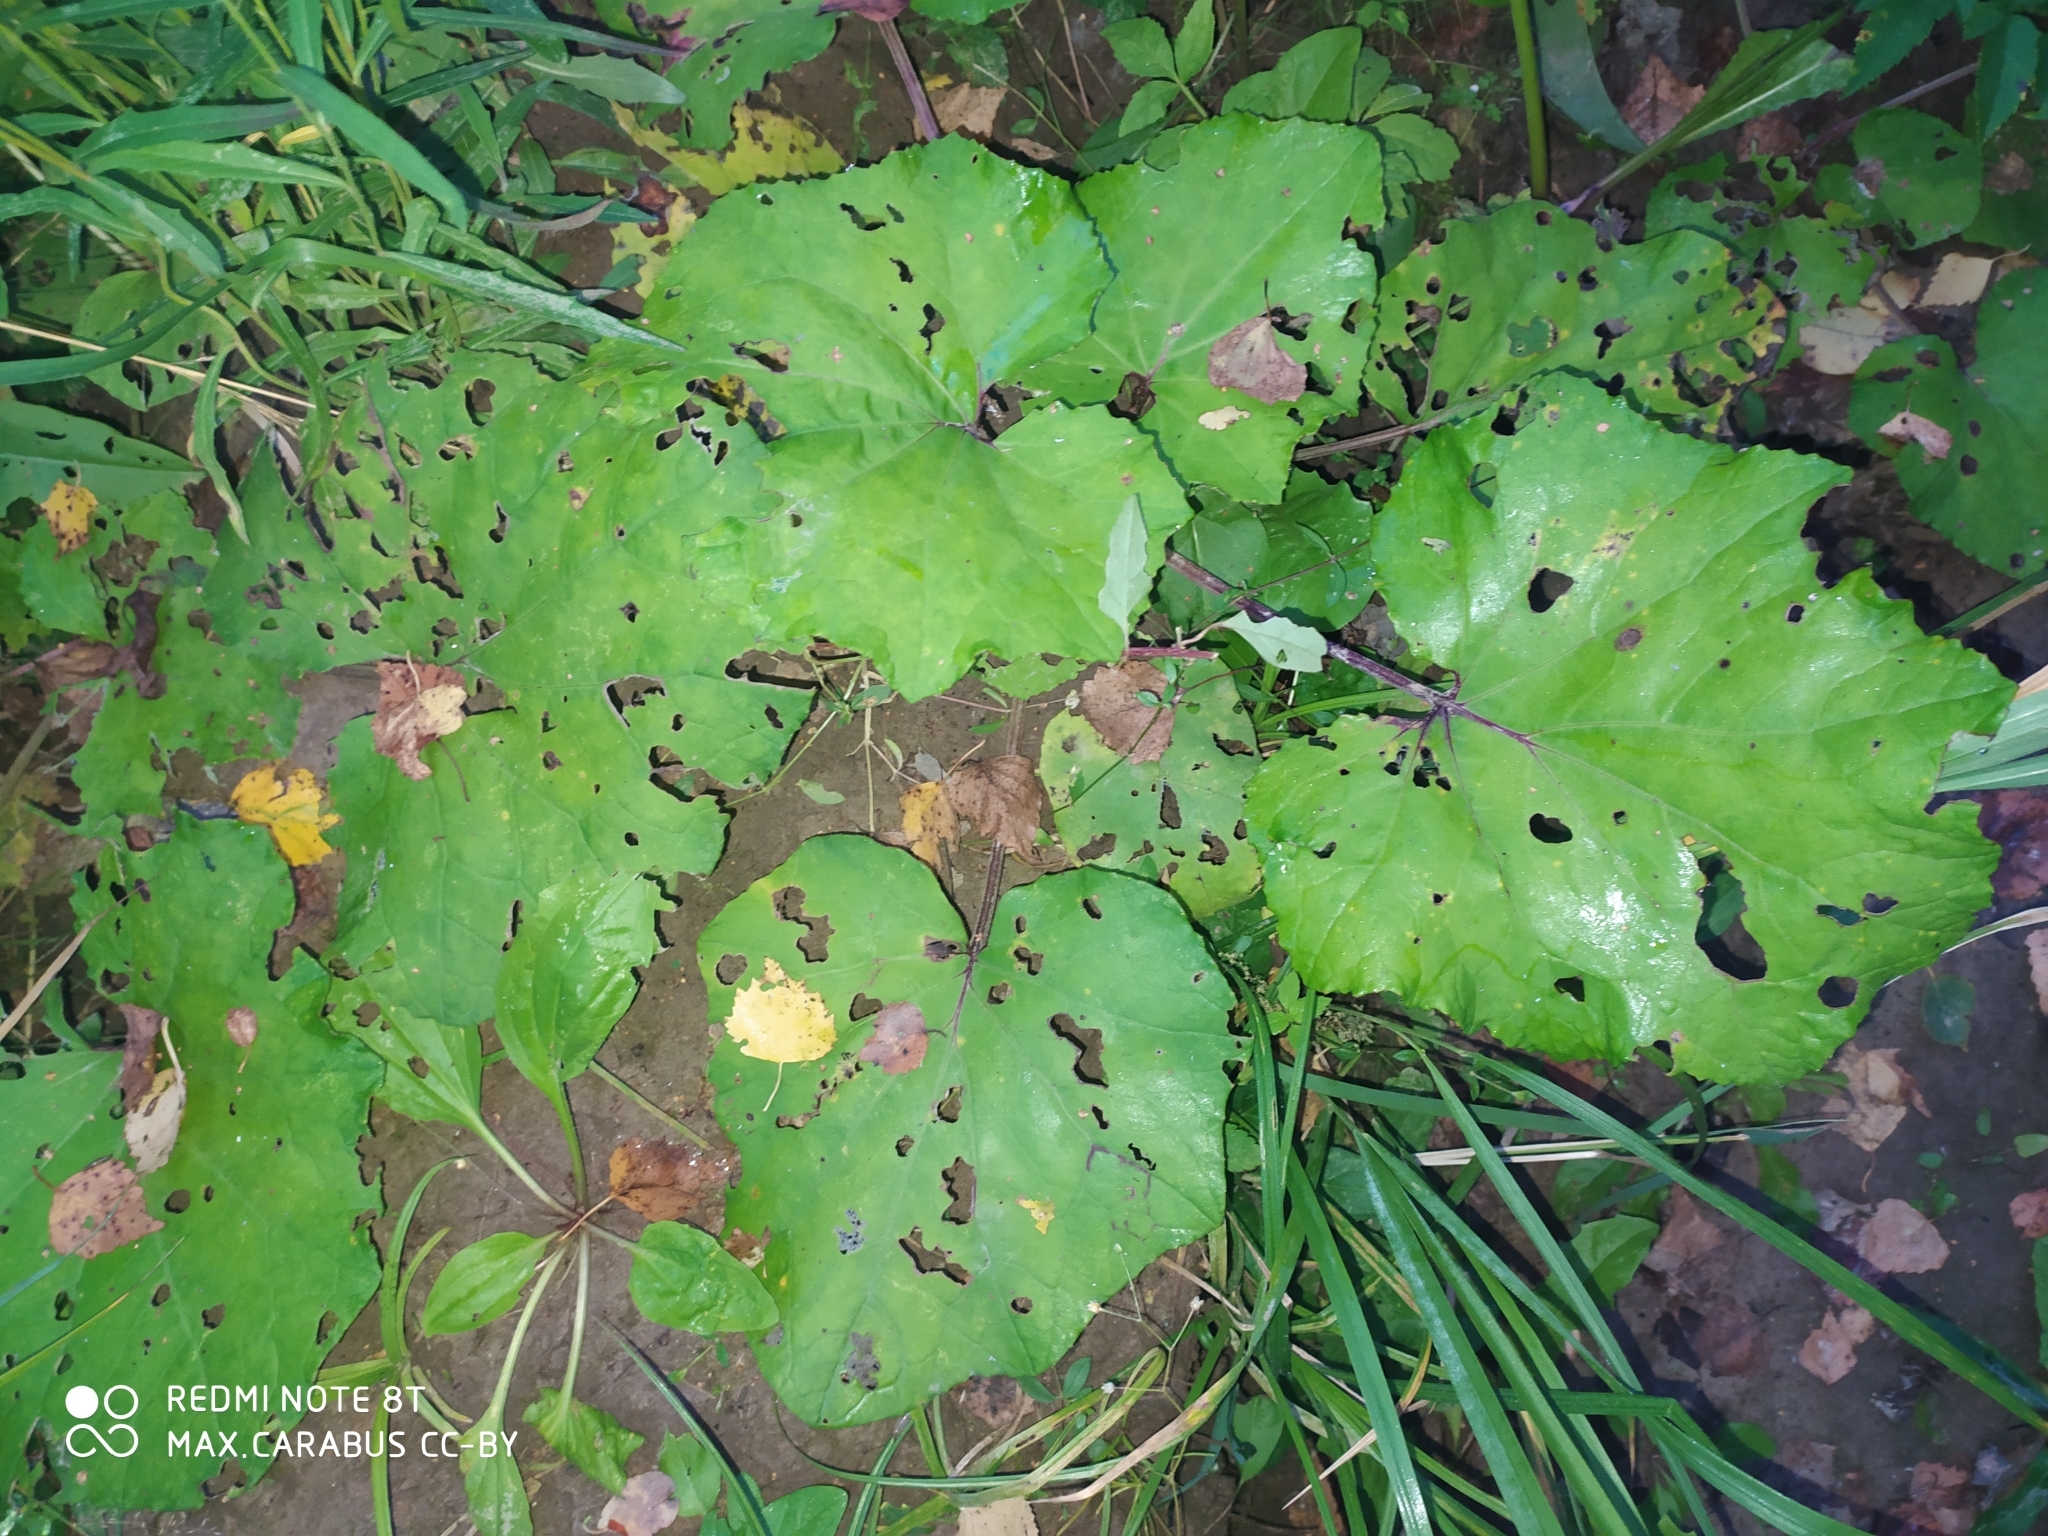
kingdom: Plantae
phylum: Tracheophyta
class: Magnoliopsida
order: Asterales
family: Asteraceae
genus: Tussilago
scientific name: Tussilago farfara
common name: Coltsfoot
